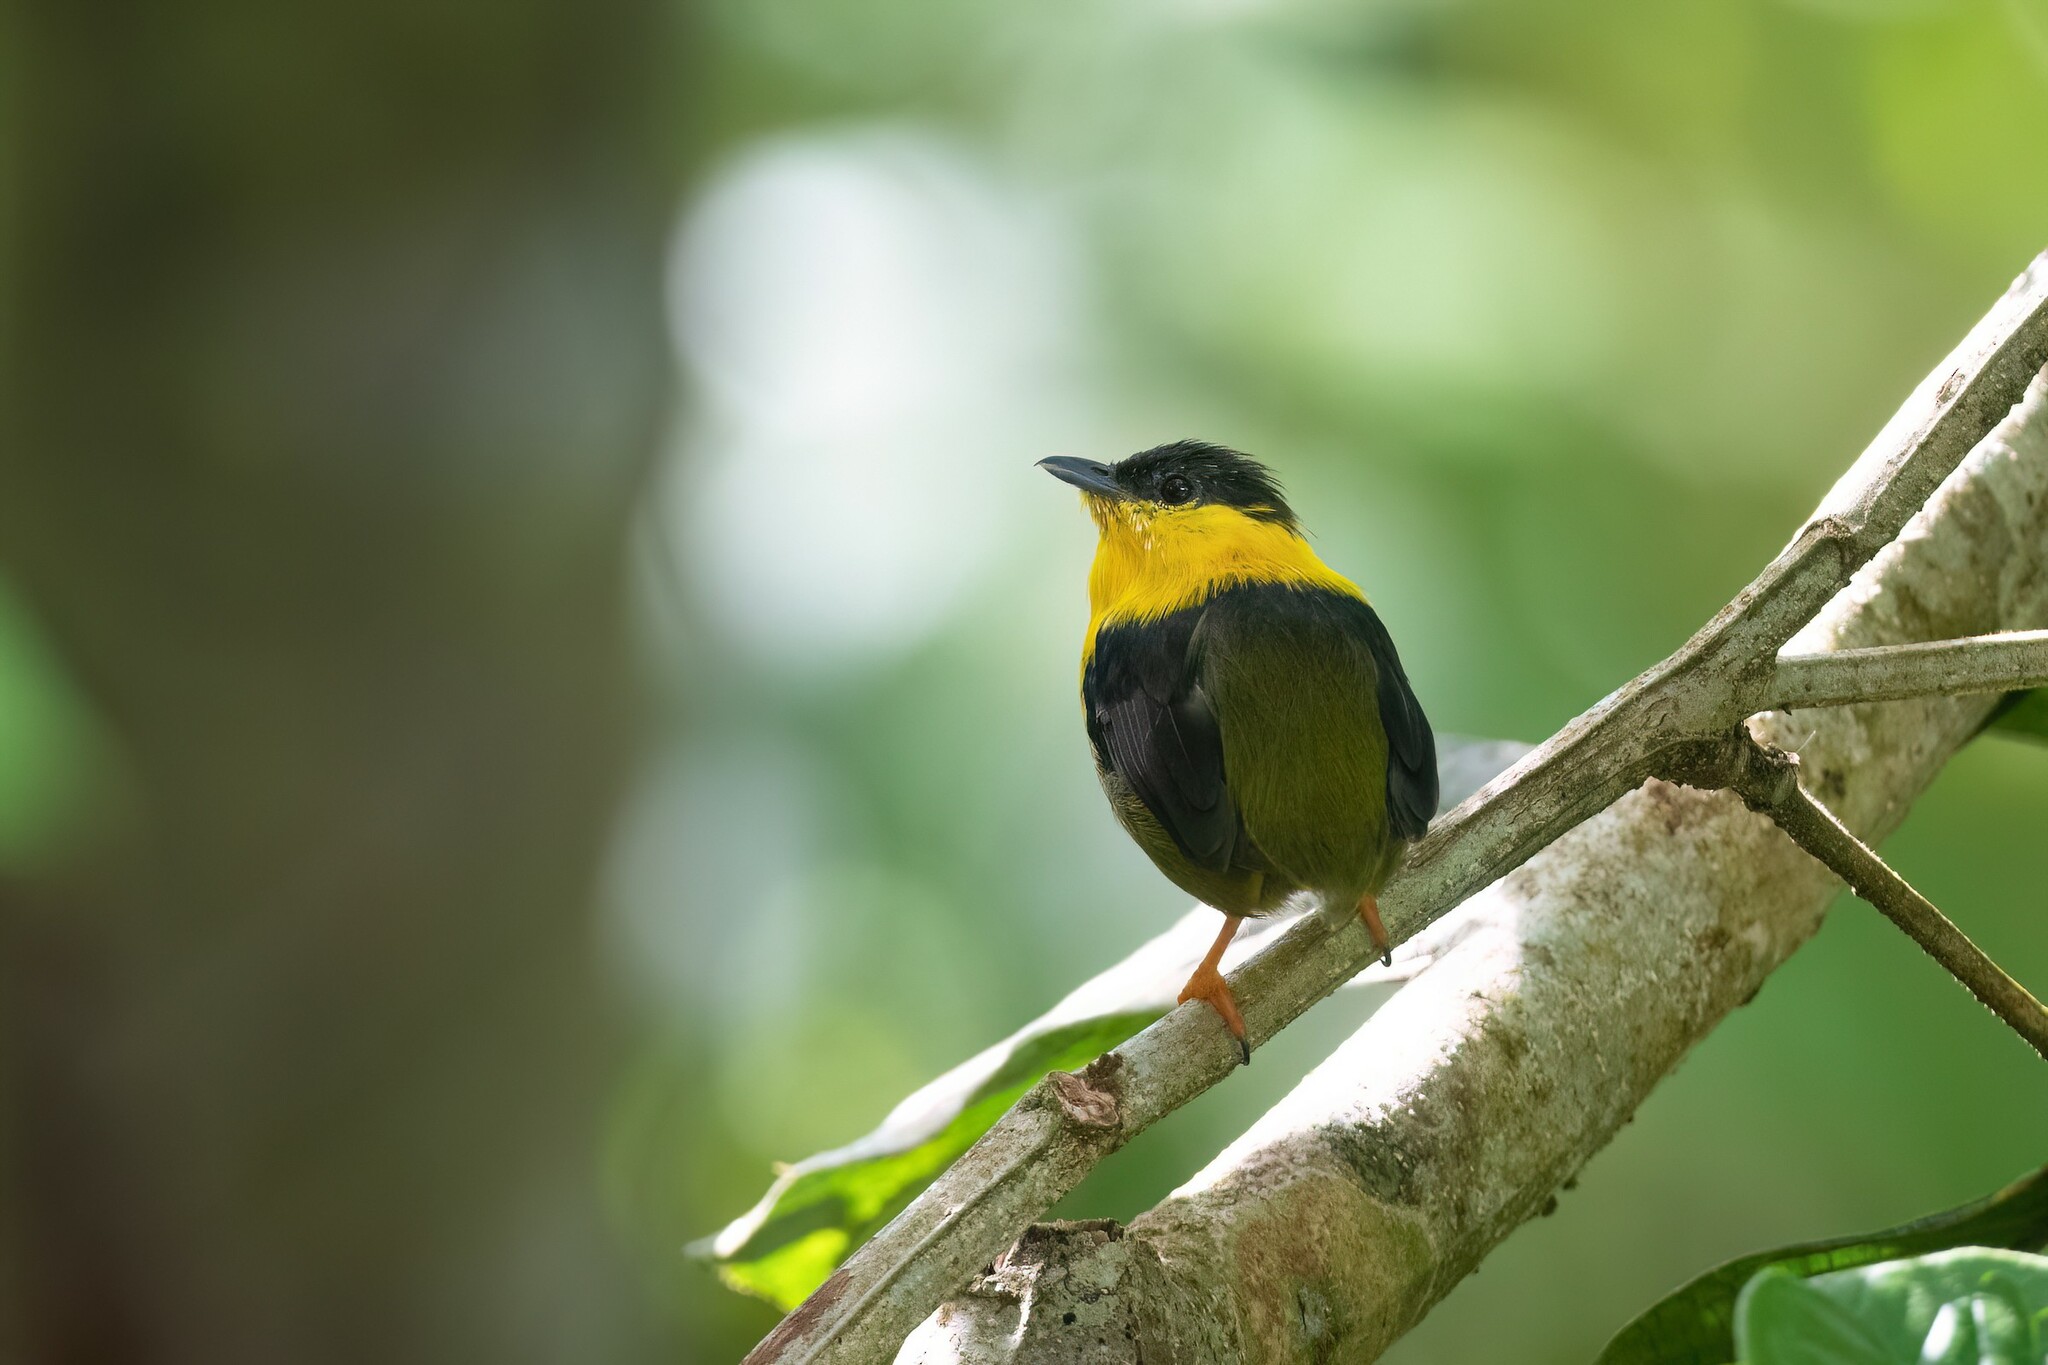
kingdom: Animalia
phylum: Chordata
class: Aves
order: Passeriformes
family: Pipridae
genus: Manacus
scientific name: Manacus vitellinus
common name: Golden-collared manakin
